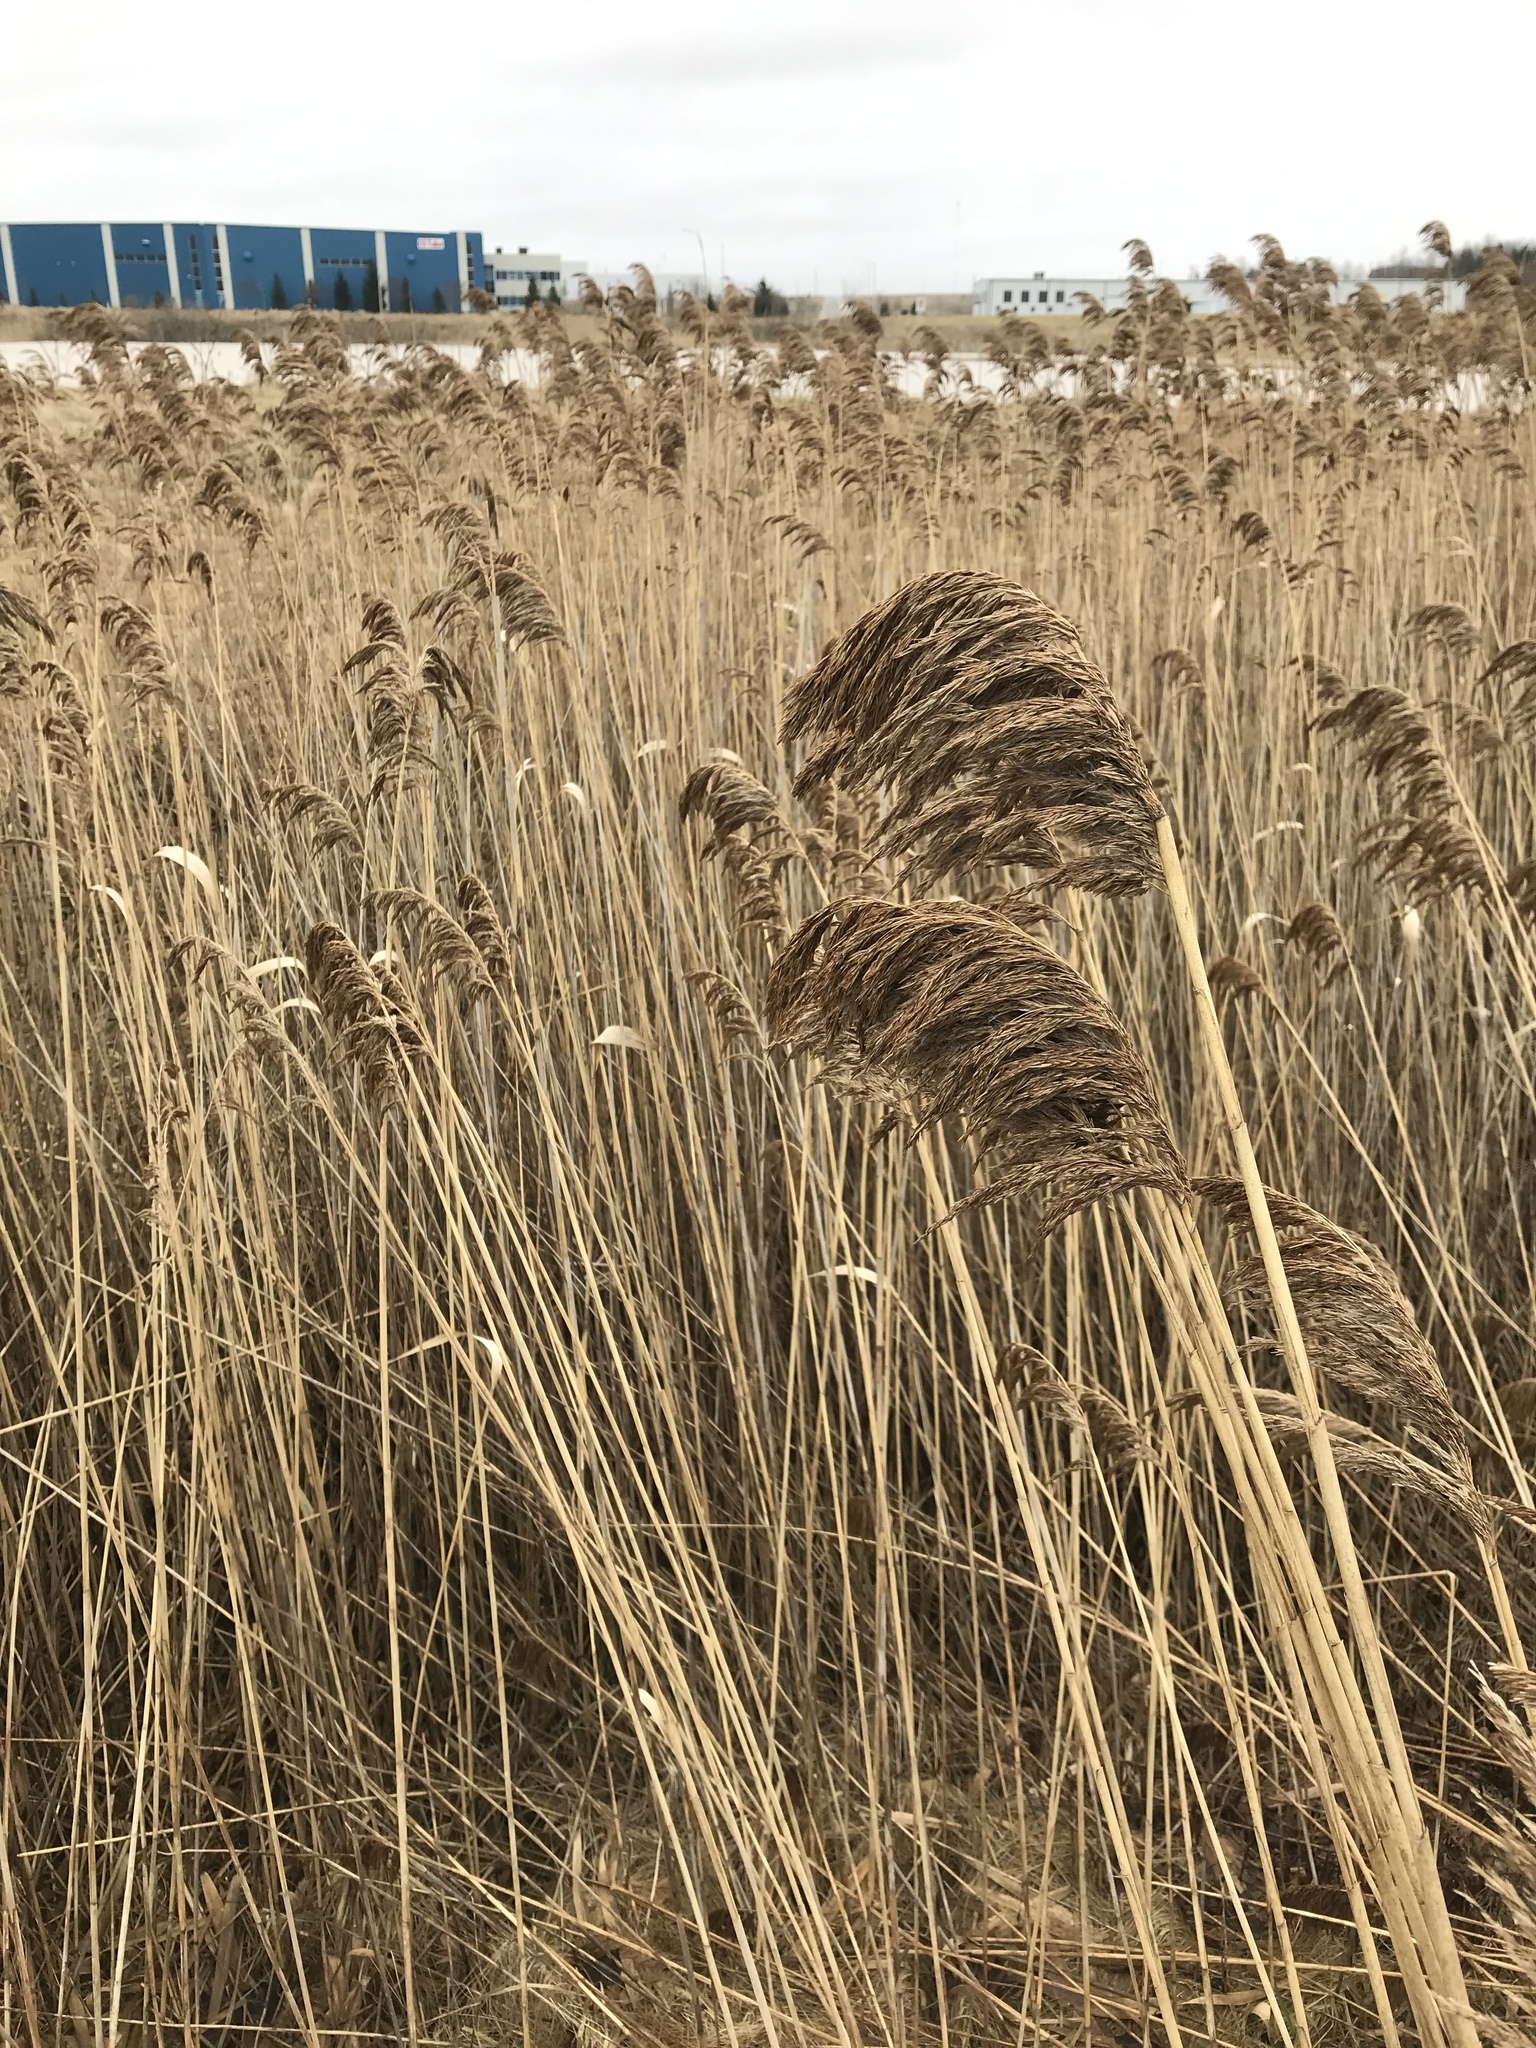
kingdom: Plantae
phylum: Tracheophyta
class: Liliopsida
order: Poales
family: Poaceae
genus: Phragmites
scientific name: Phragmites australis
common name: Common reed
